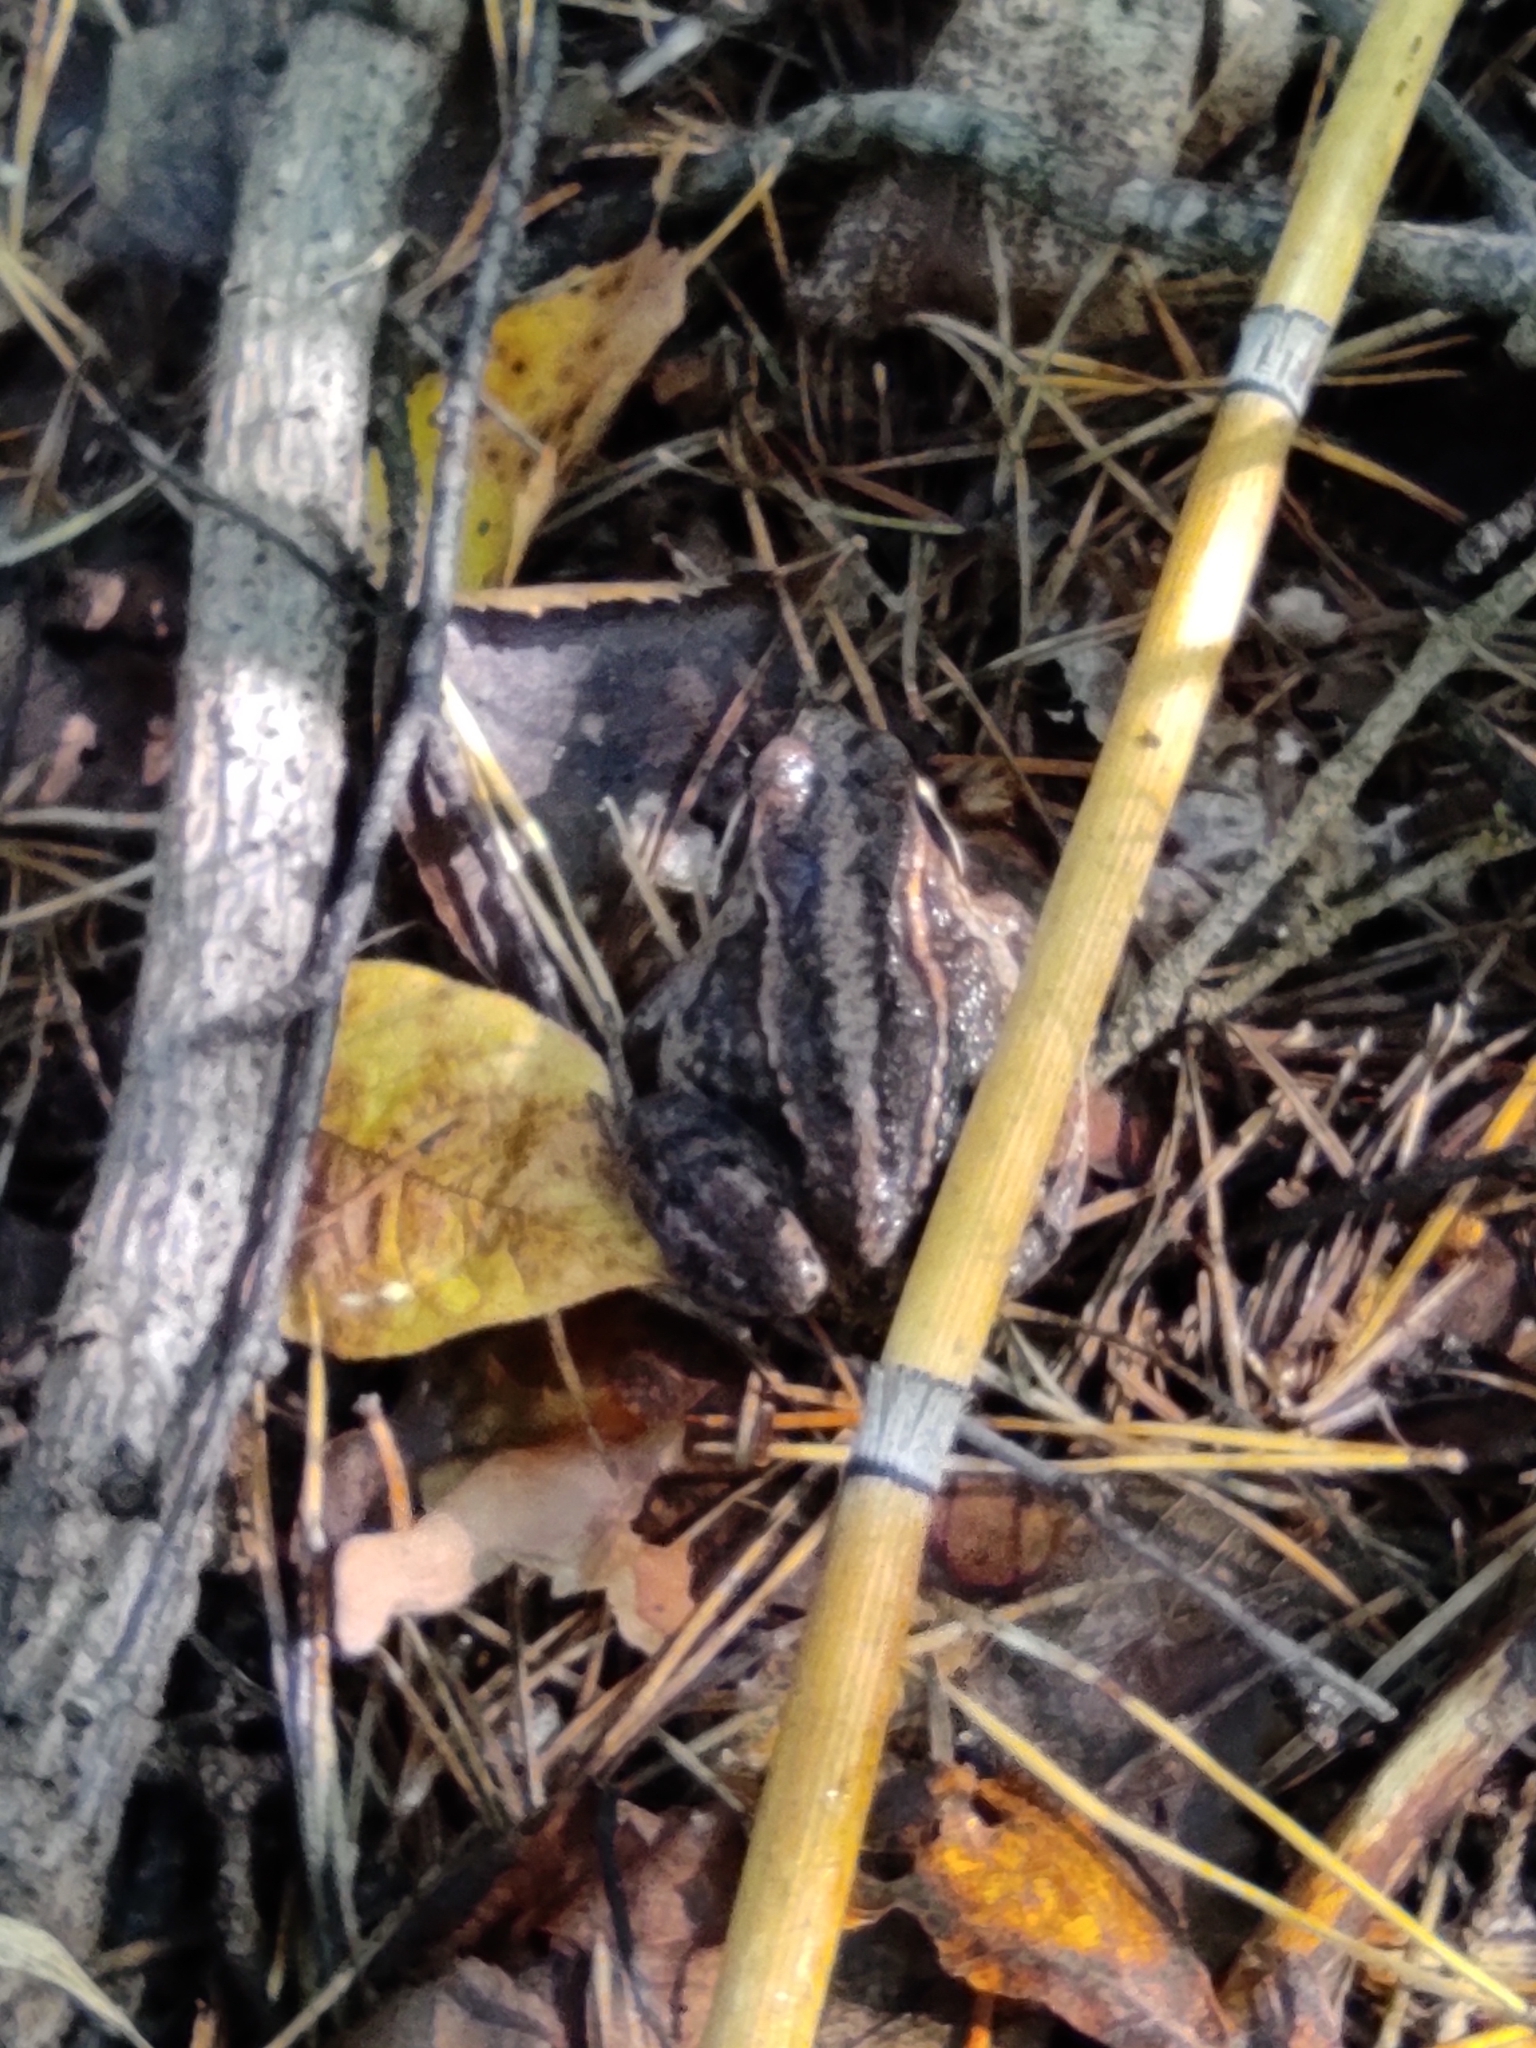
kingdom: Animalia
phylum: Chordata
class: Amphibia
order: Anura
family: Ranidae
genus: Rana
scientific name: Rana arvalis
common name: Moor frog
